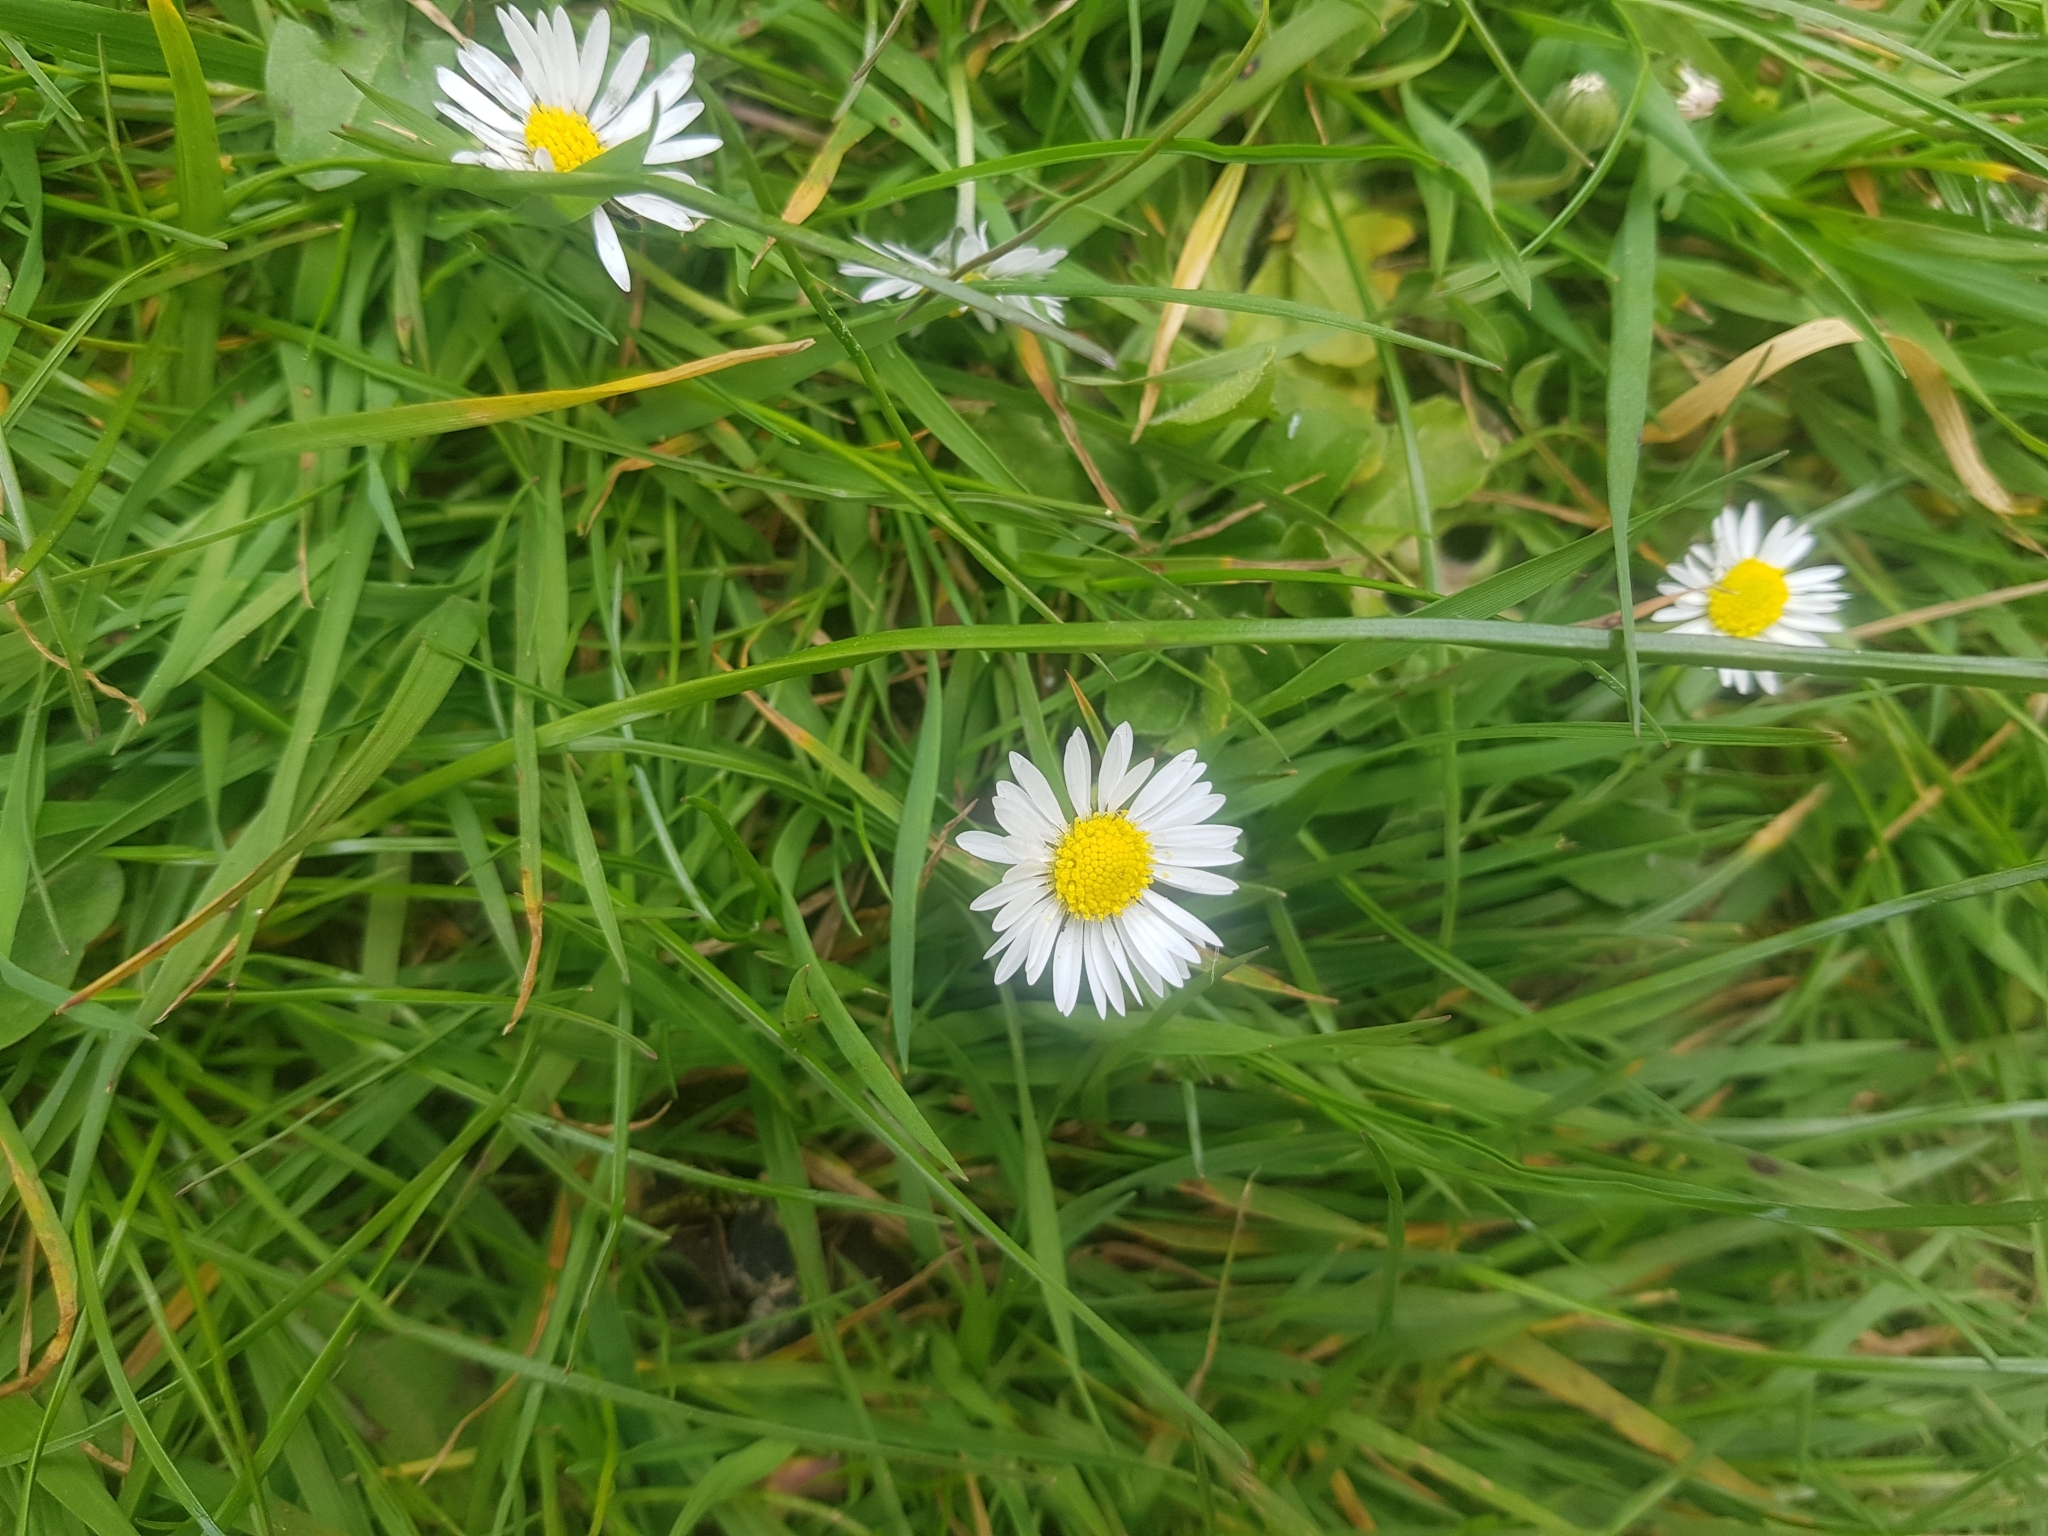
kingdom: Plantae
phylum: Tracheophyta
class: Magnoliopsida
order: Asterales
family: Asteraceae
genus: Bellis
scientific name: Bellis perennis
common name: Lawndaisy
